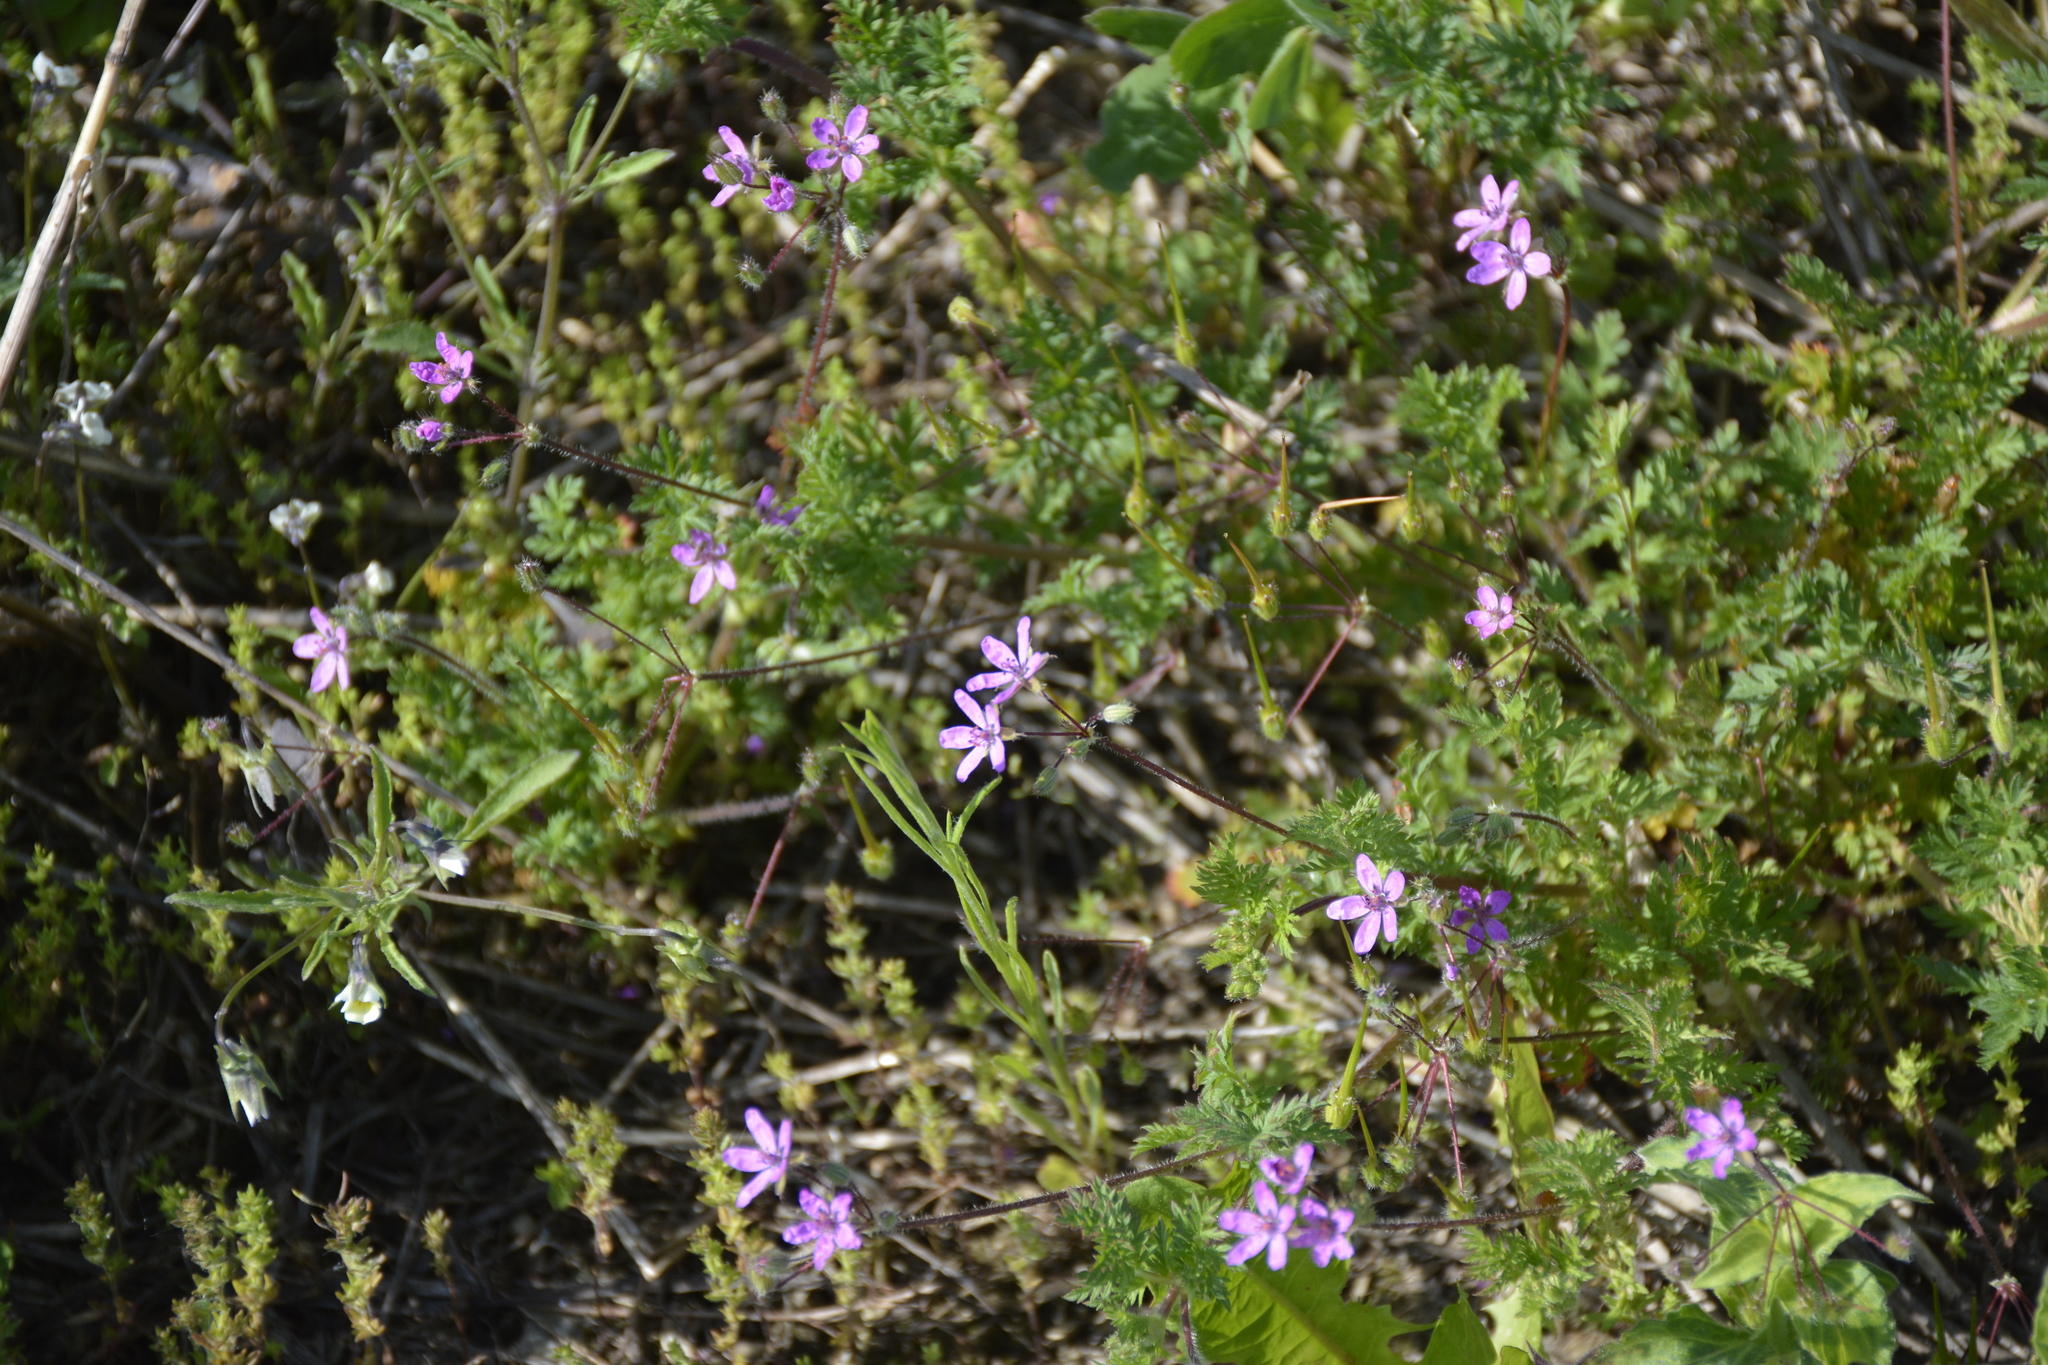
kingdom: Plantae
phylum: Tracheophyta
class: Magnoliopsida
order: Geraniales
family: Geraniaceae
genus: Erodium
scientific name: Erodium cicutarium
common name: Common stork's-bill
